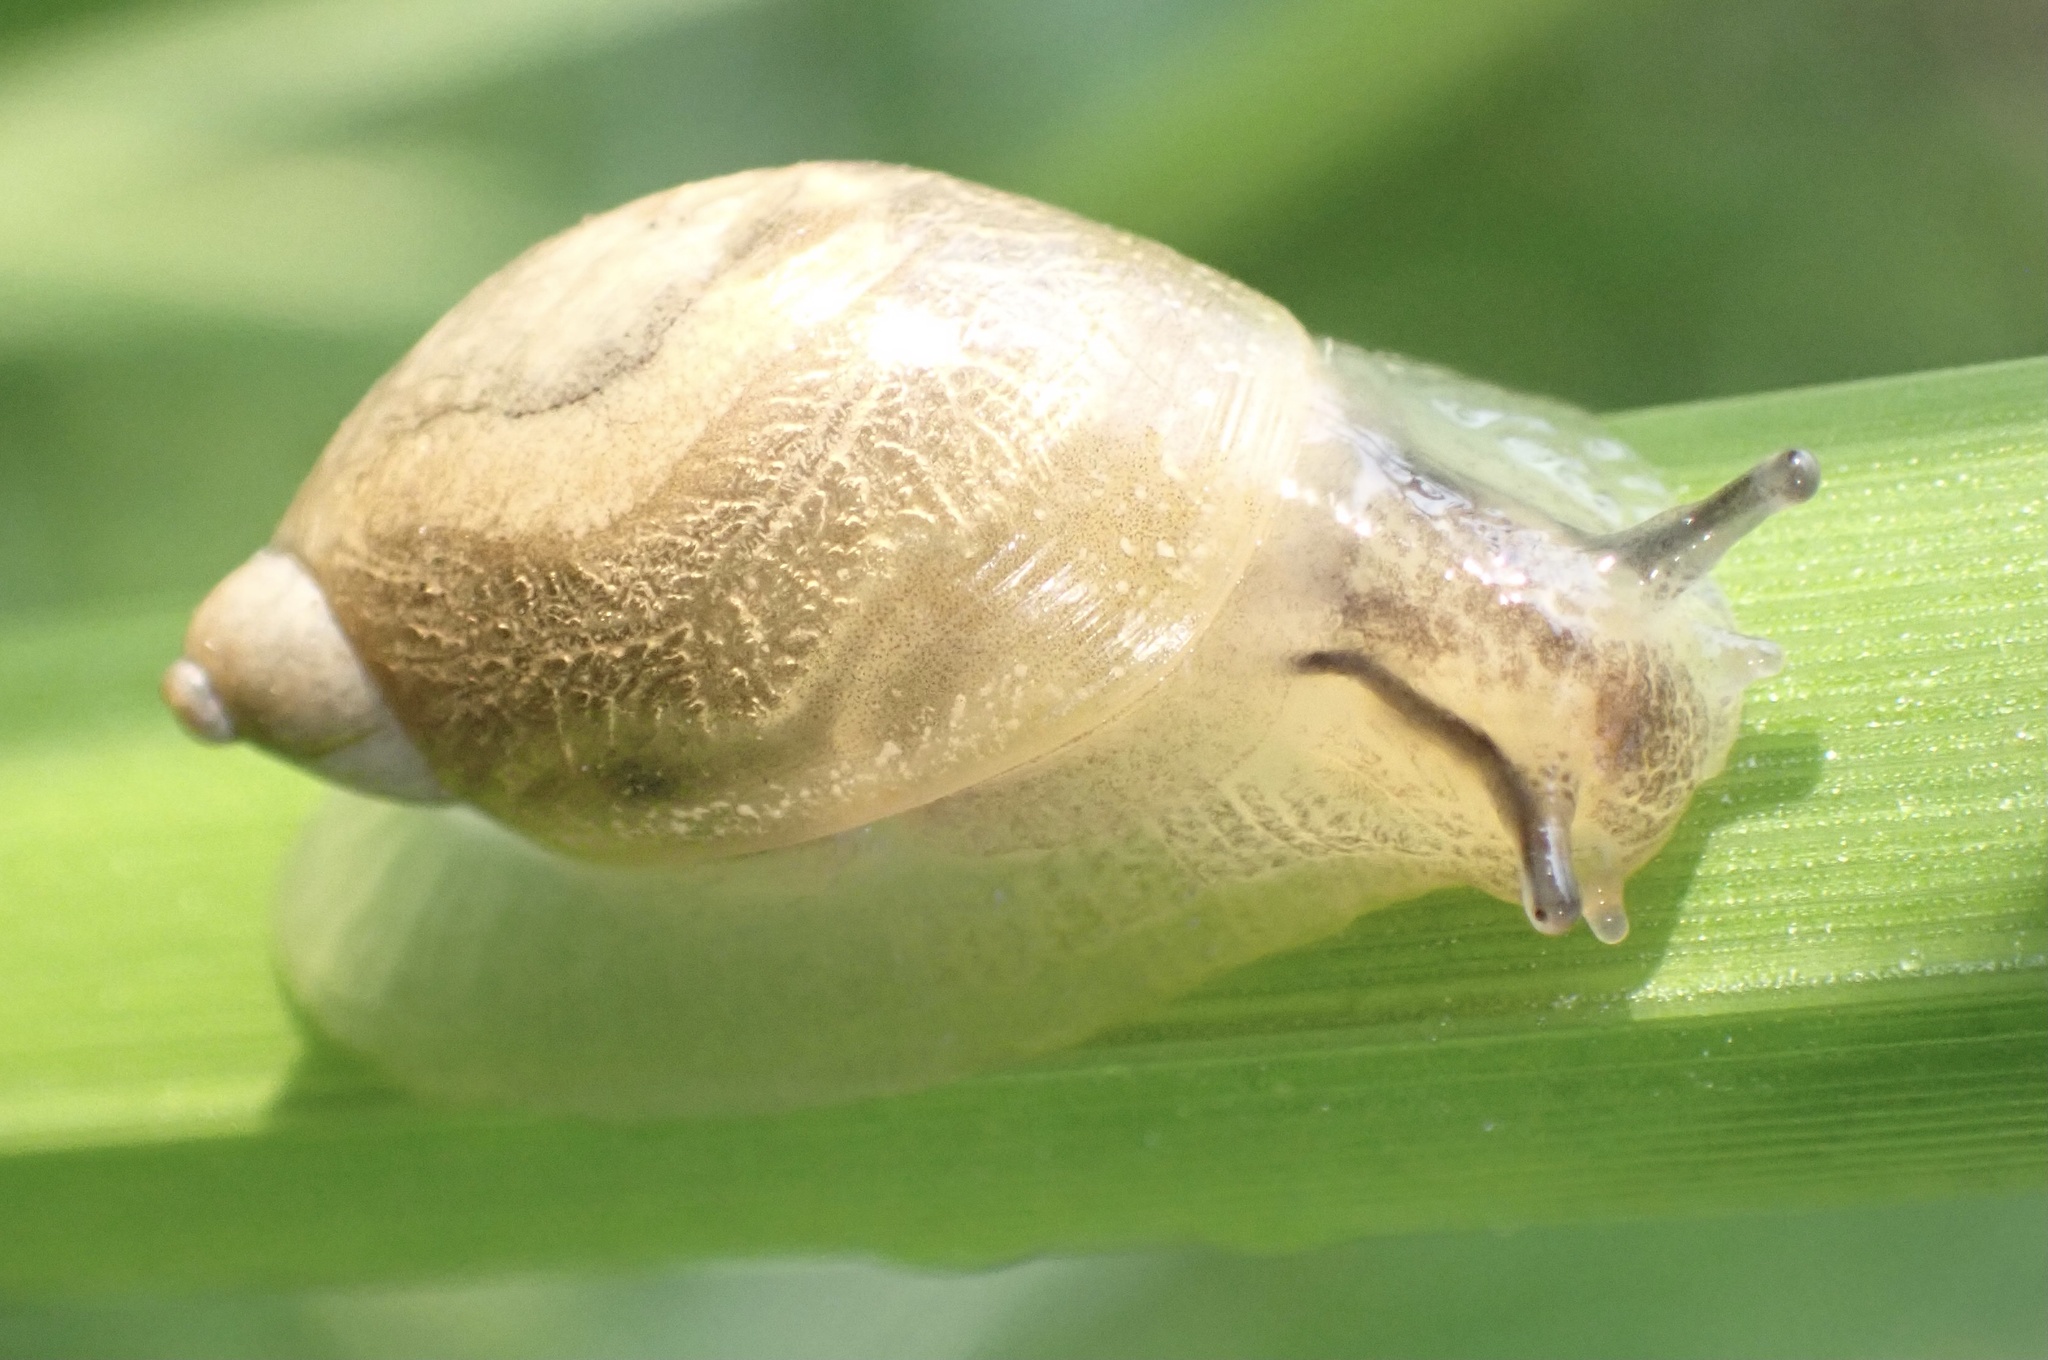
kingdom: Animalia
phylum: Mollusca
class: Gastropoda
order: Stylommatophora
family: Succineidae
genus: Succinea
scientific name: Succinea putris
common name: European ambersnail
